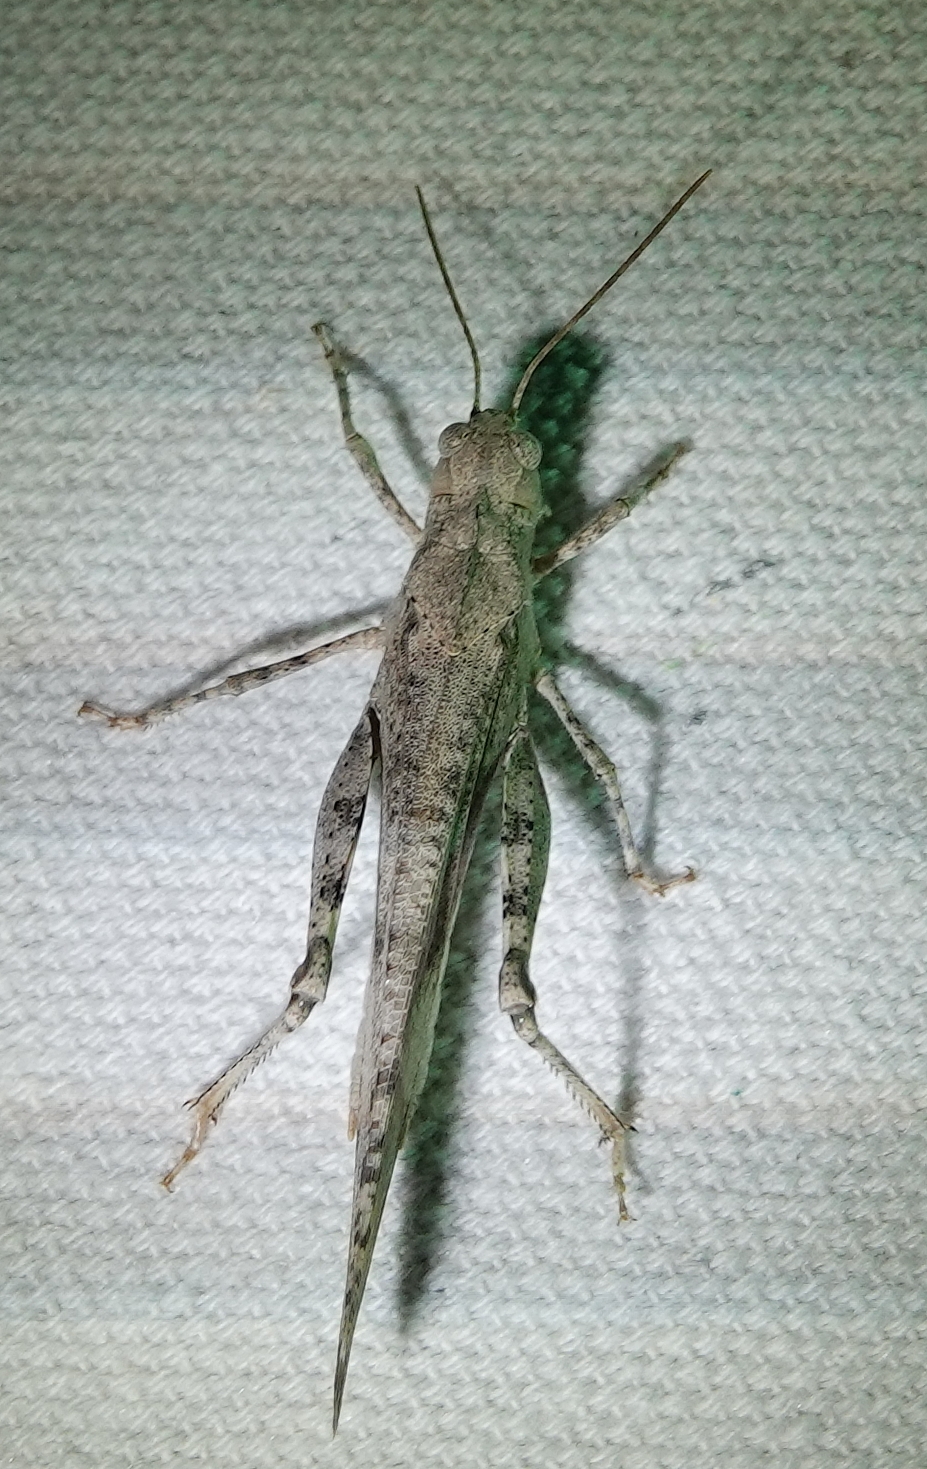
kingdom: Animalia
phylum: Arthropoda
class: Insecta
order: Orthoptera
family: Acrididae
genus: Dissosteira
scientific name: Dissosteira carolina
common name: Carolina grasshopper
